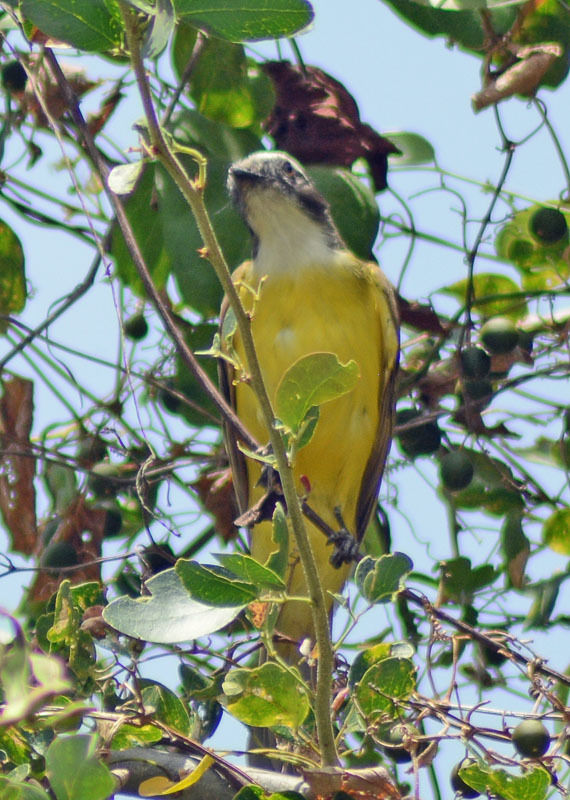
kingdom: Animalia
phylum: Chordata
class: Aves
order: Passeriformes
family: Tyrannidae
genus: Myiozetetes
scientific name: Myiozetetes similis
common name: Social flycatcher
